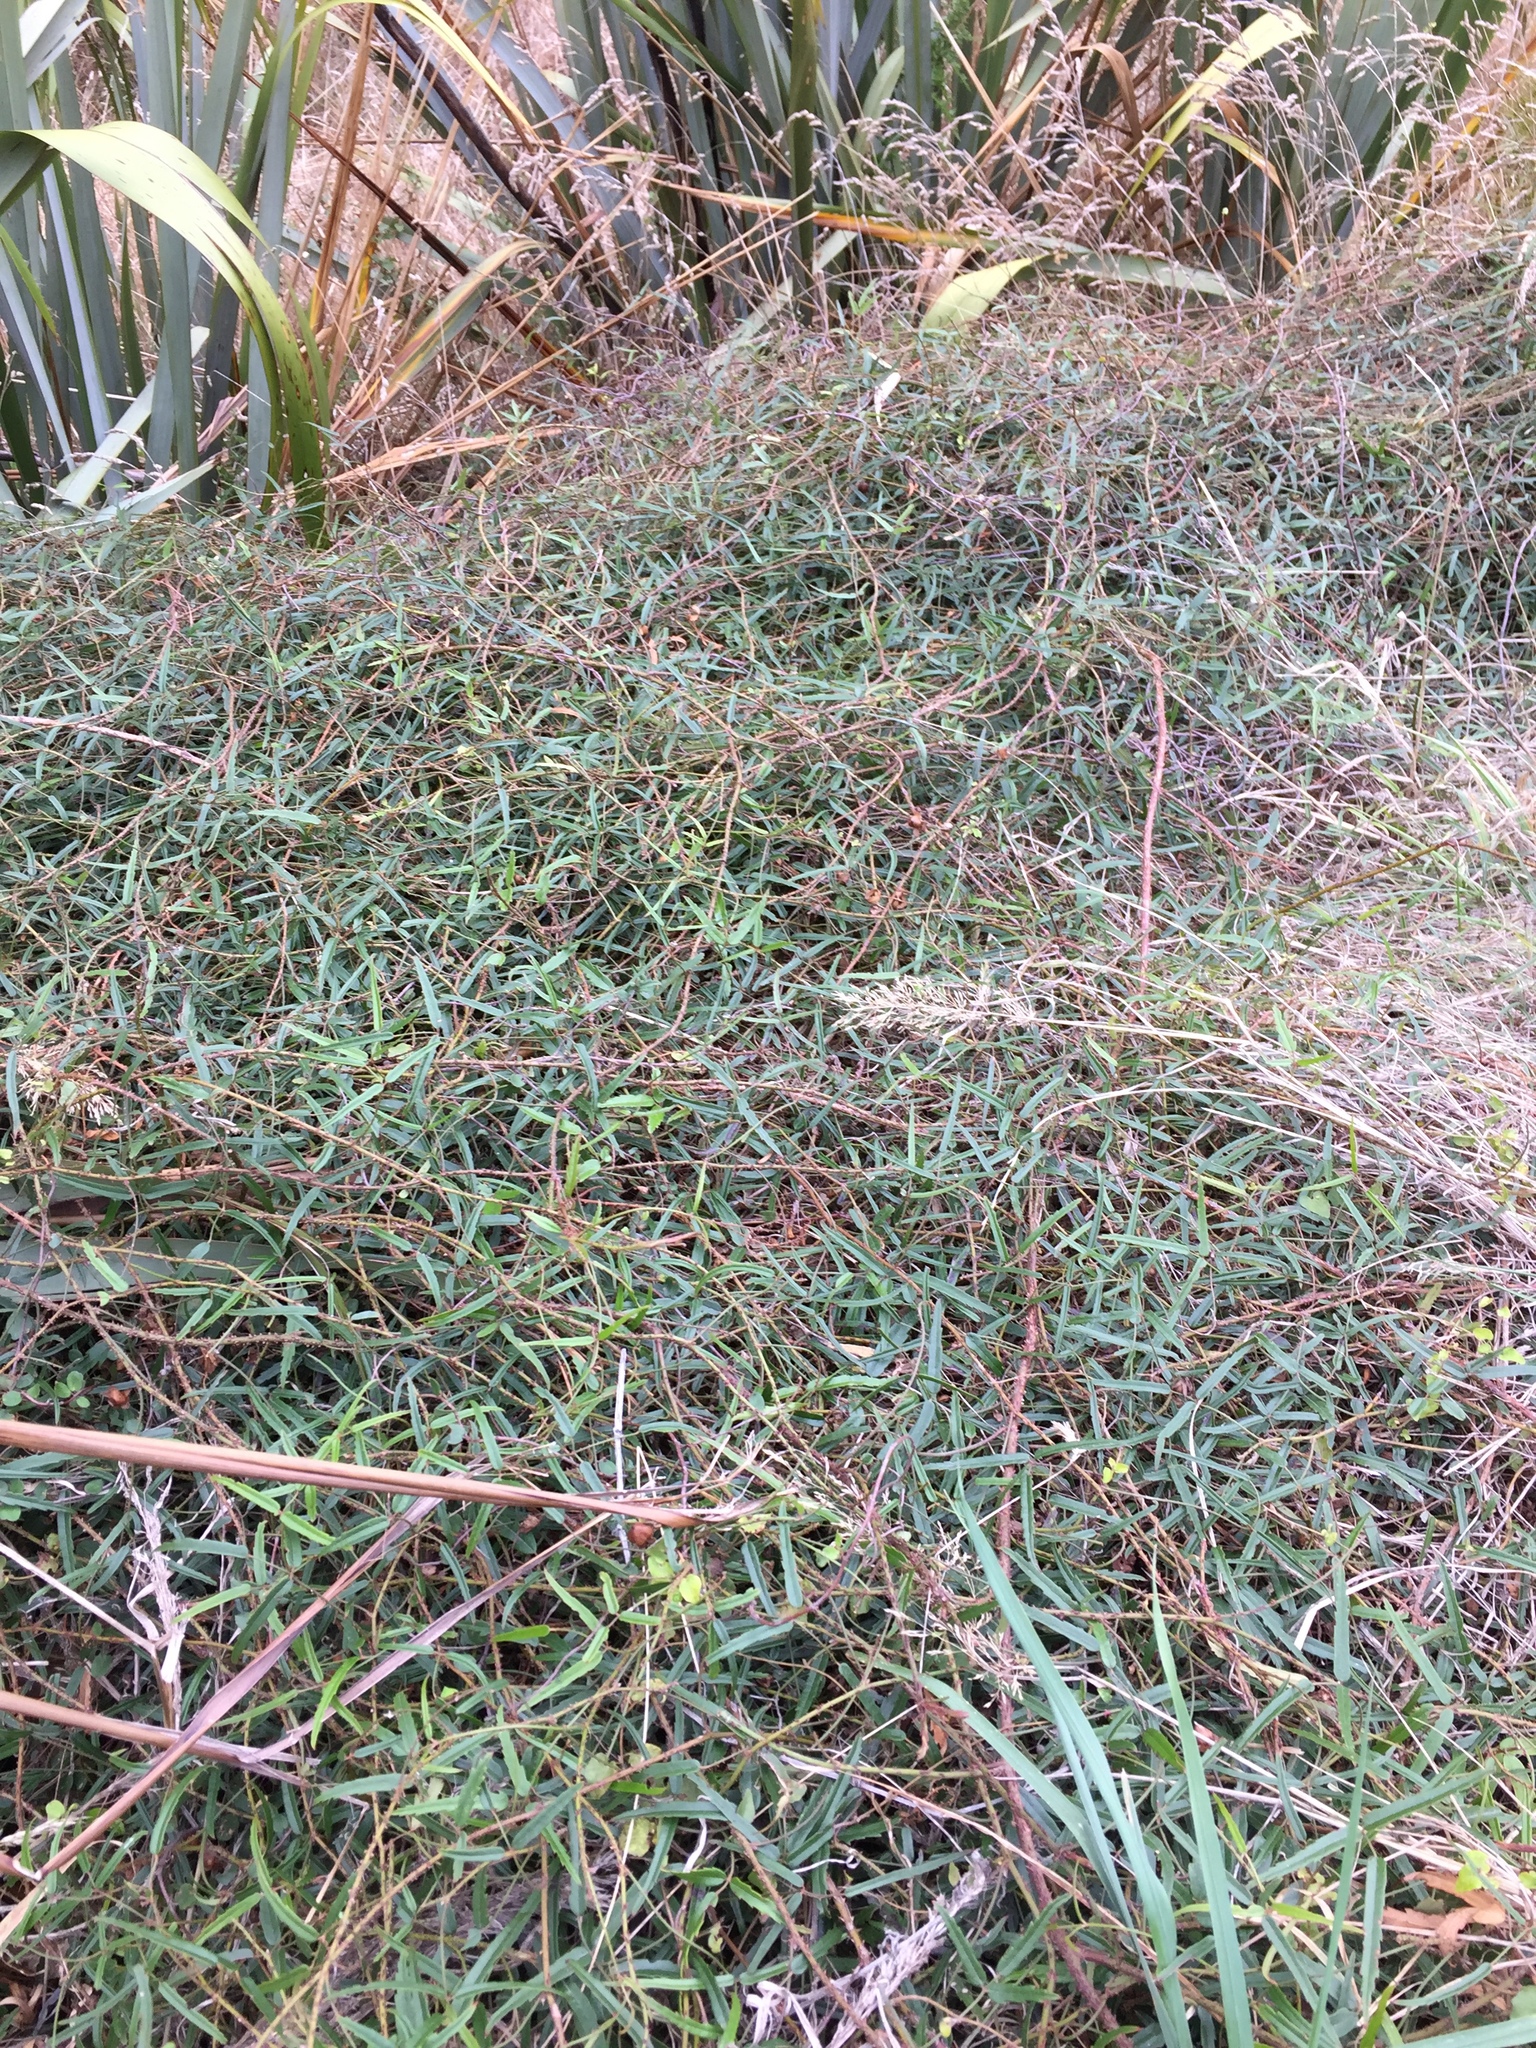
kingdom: Plantae
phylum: Tracheophyta
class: Magnoliopsida
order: Rosales
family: Rosaceae
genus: Rubus
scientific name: Rubus schmidelioides
